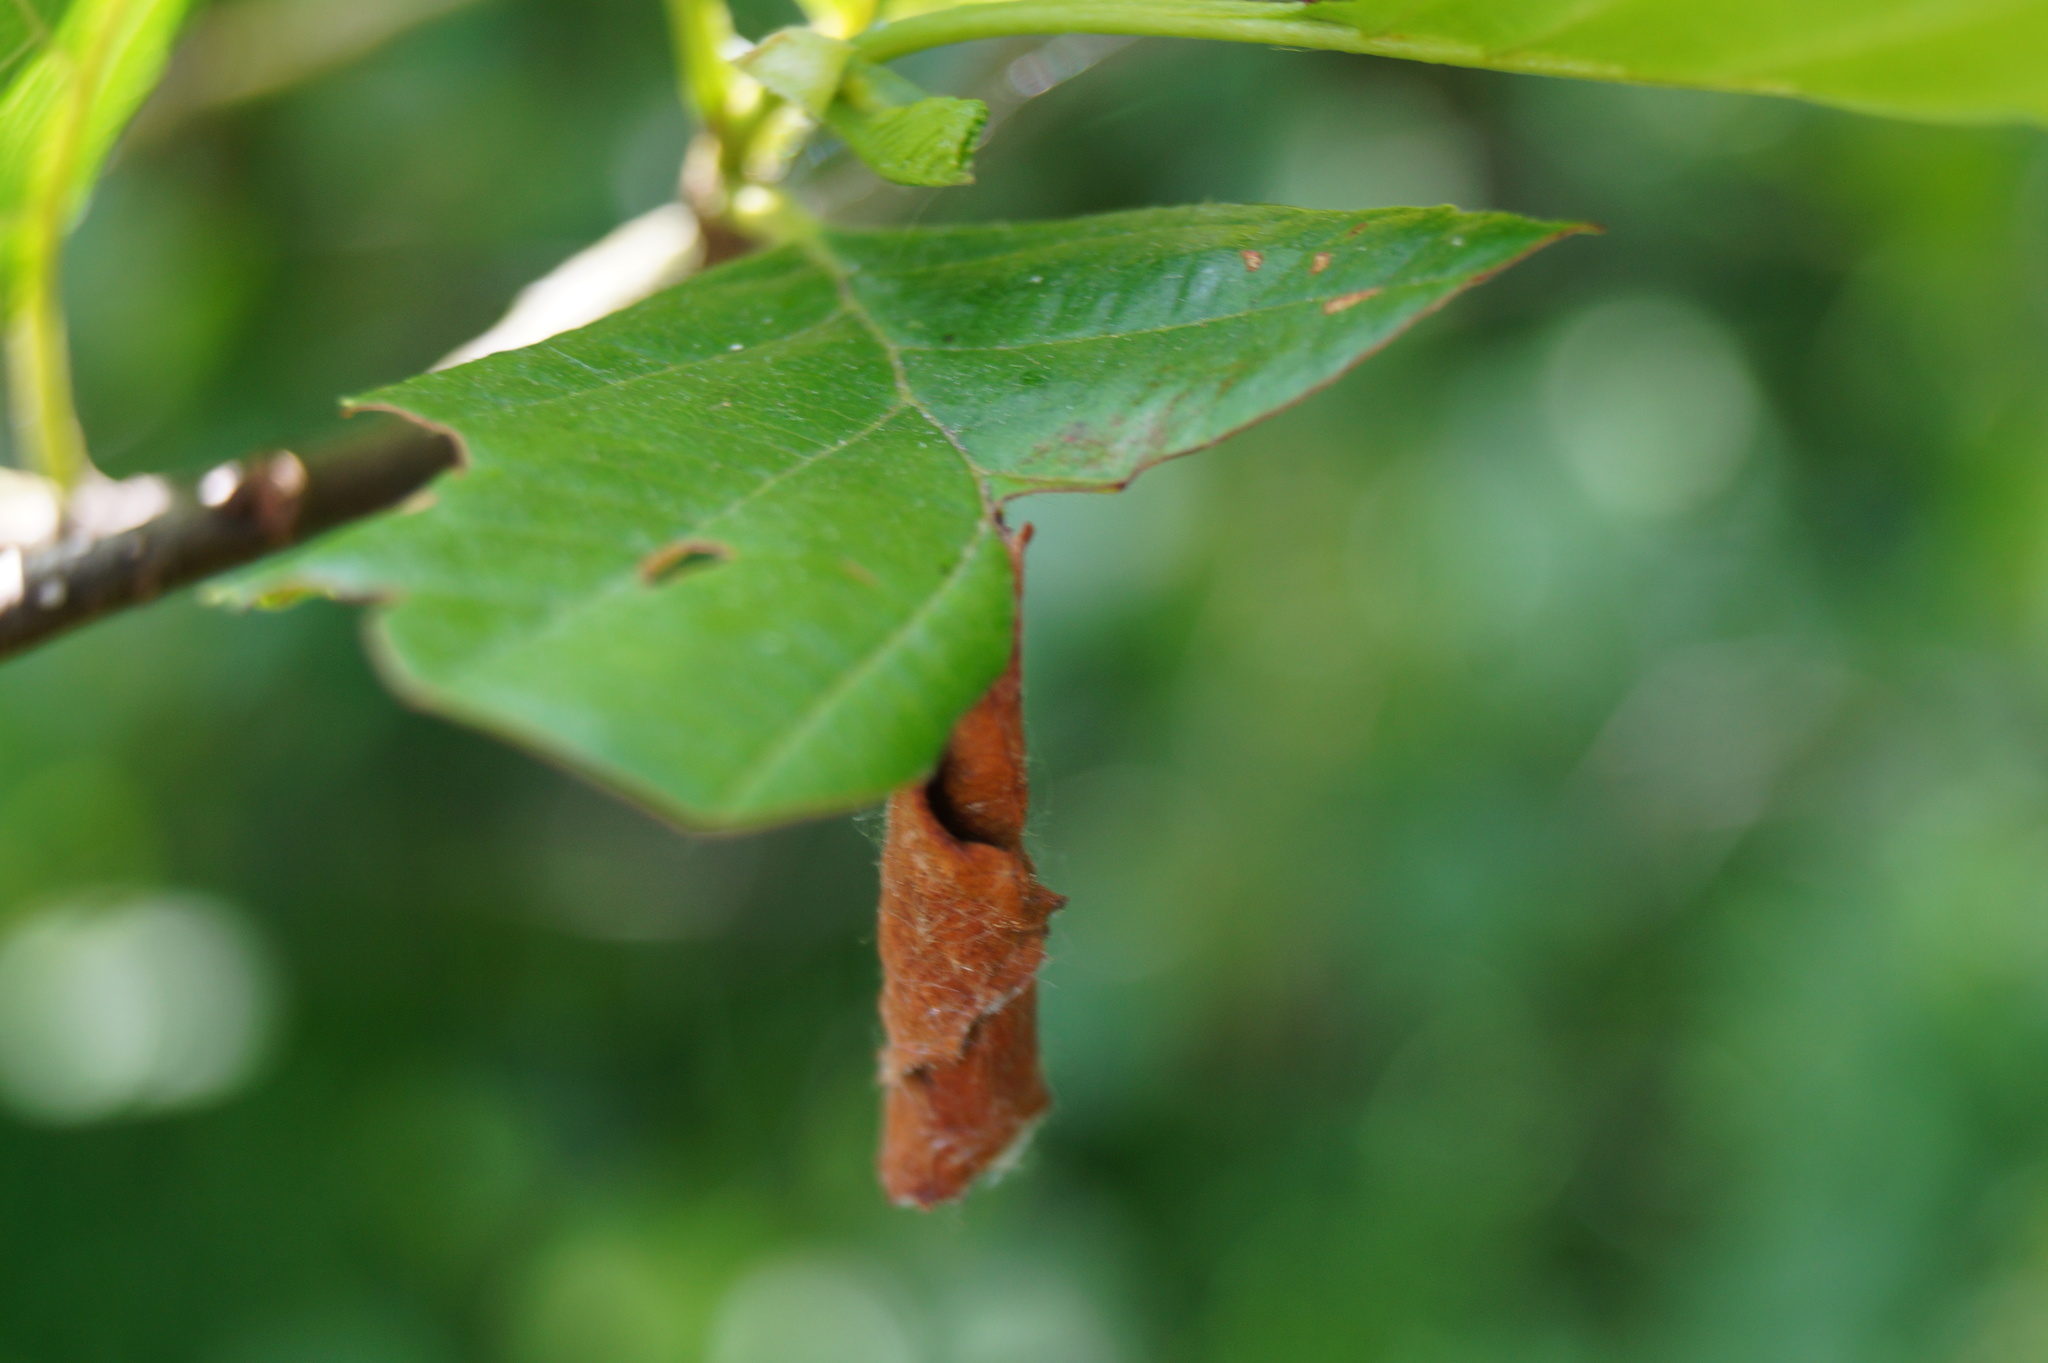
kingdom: Animalia
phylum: Arthropoda
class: Insecta
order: Coleoptera
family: Attelabidae
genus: Deporaus
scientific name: Deporaus betulae
